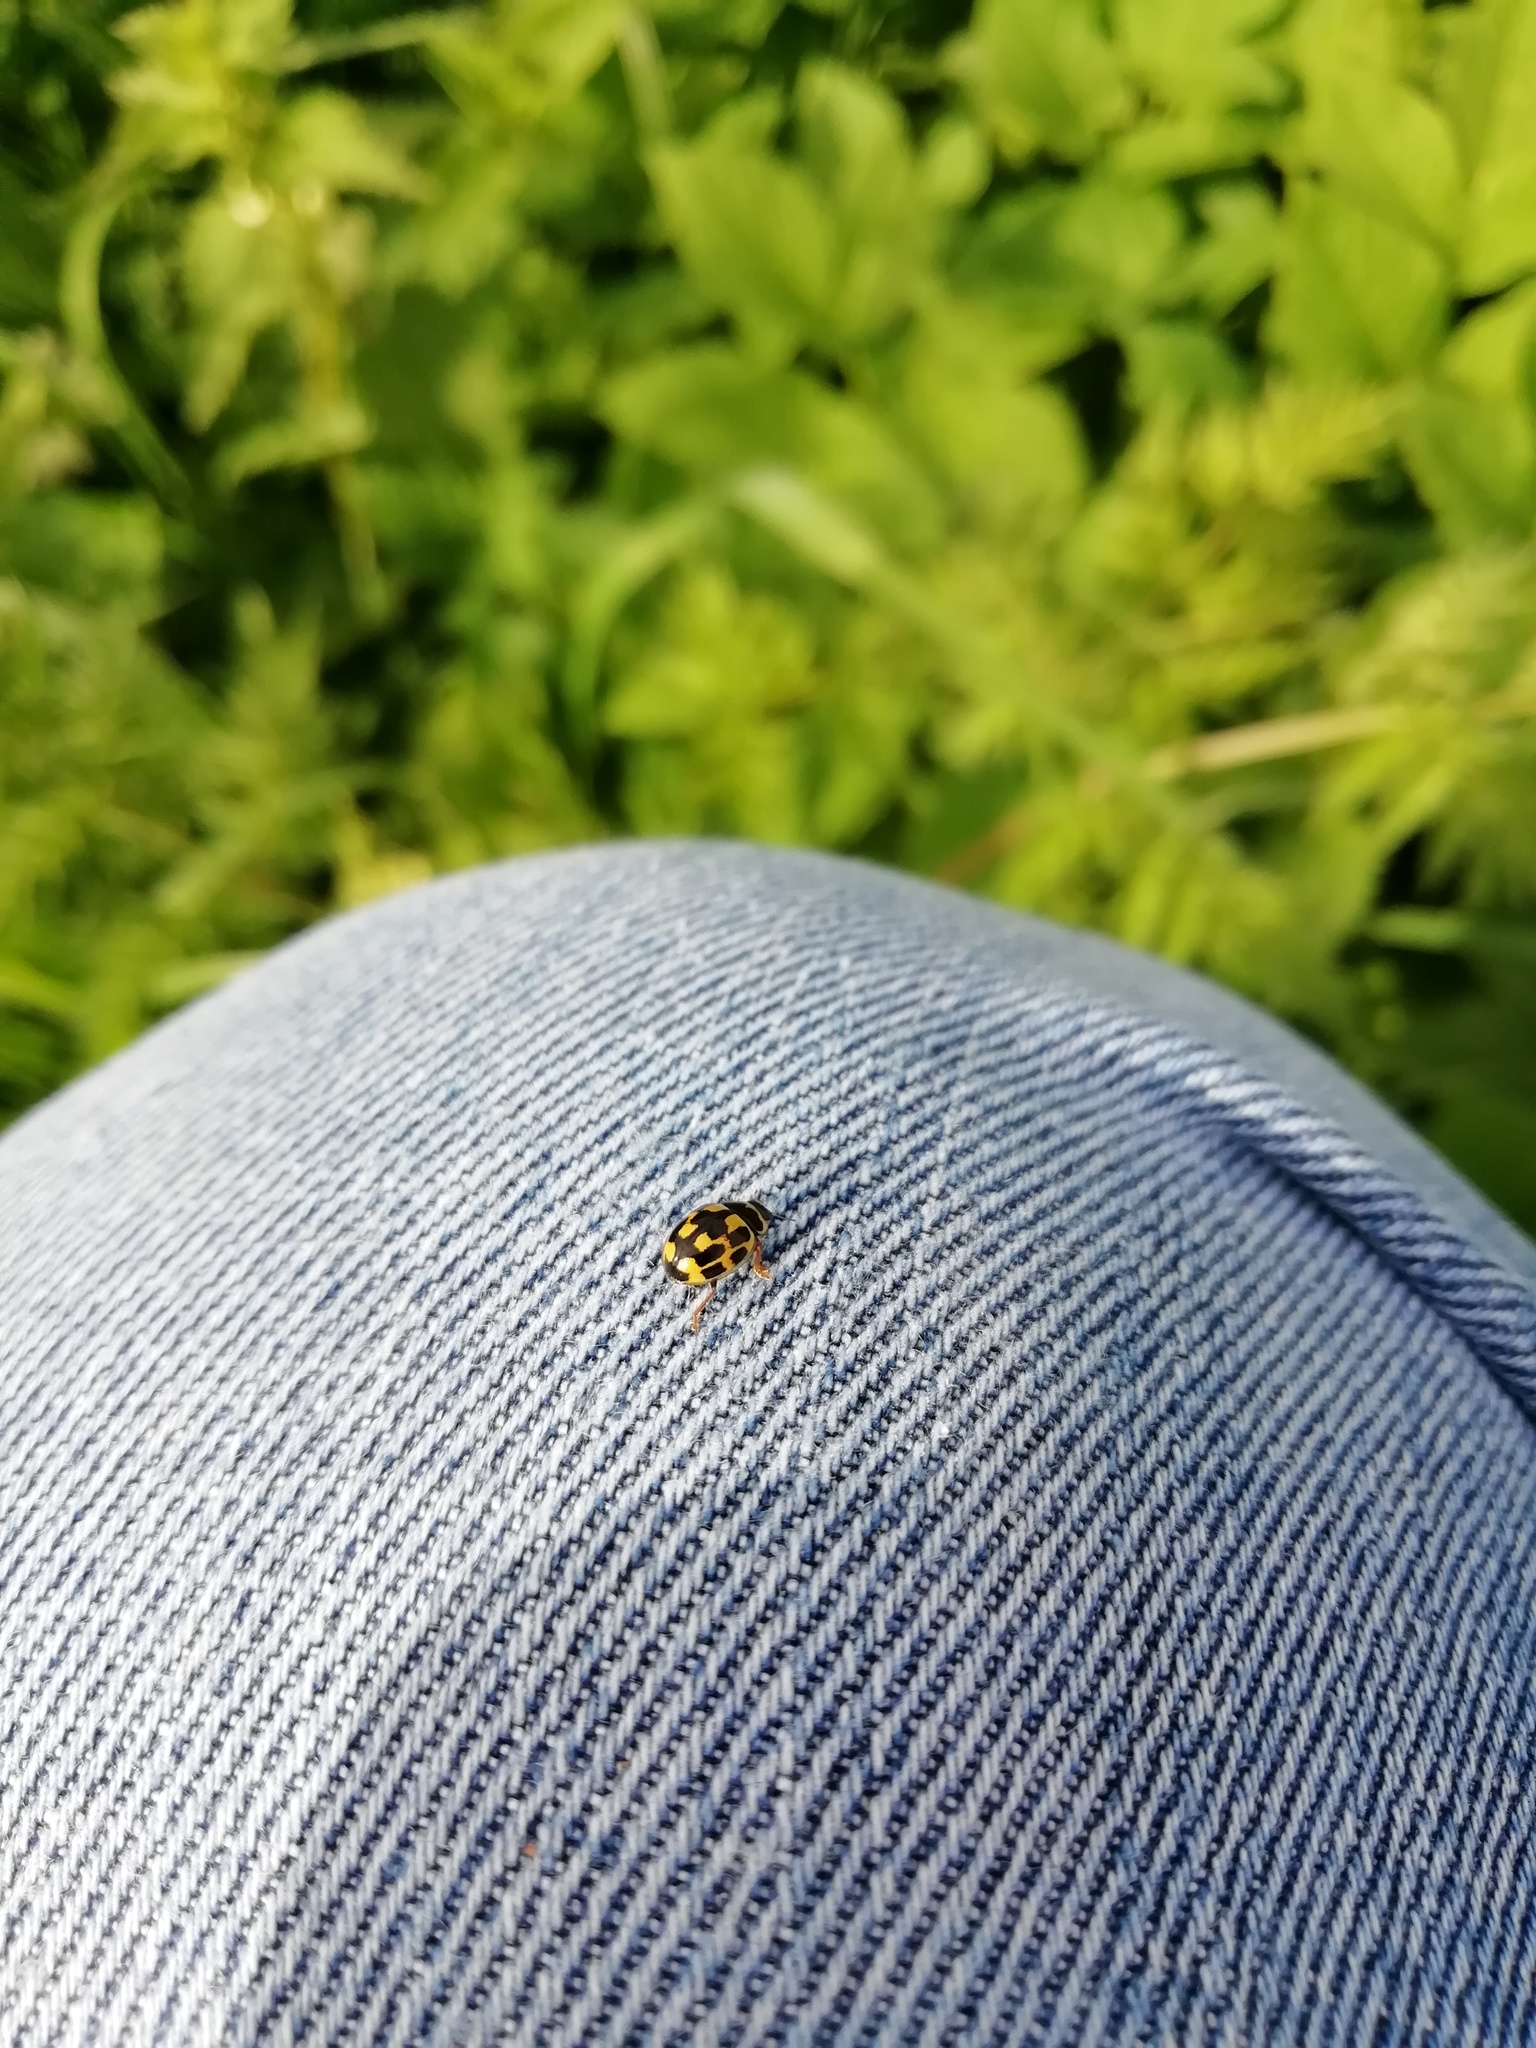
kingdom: Animalia
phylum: Arthropoda
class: Insecta
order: Coleoptera
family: Coccinellidae
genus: Propylaea
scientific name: Propylaea quatuordecimpunctata
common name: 14-spotted ladybird beetle
